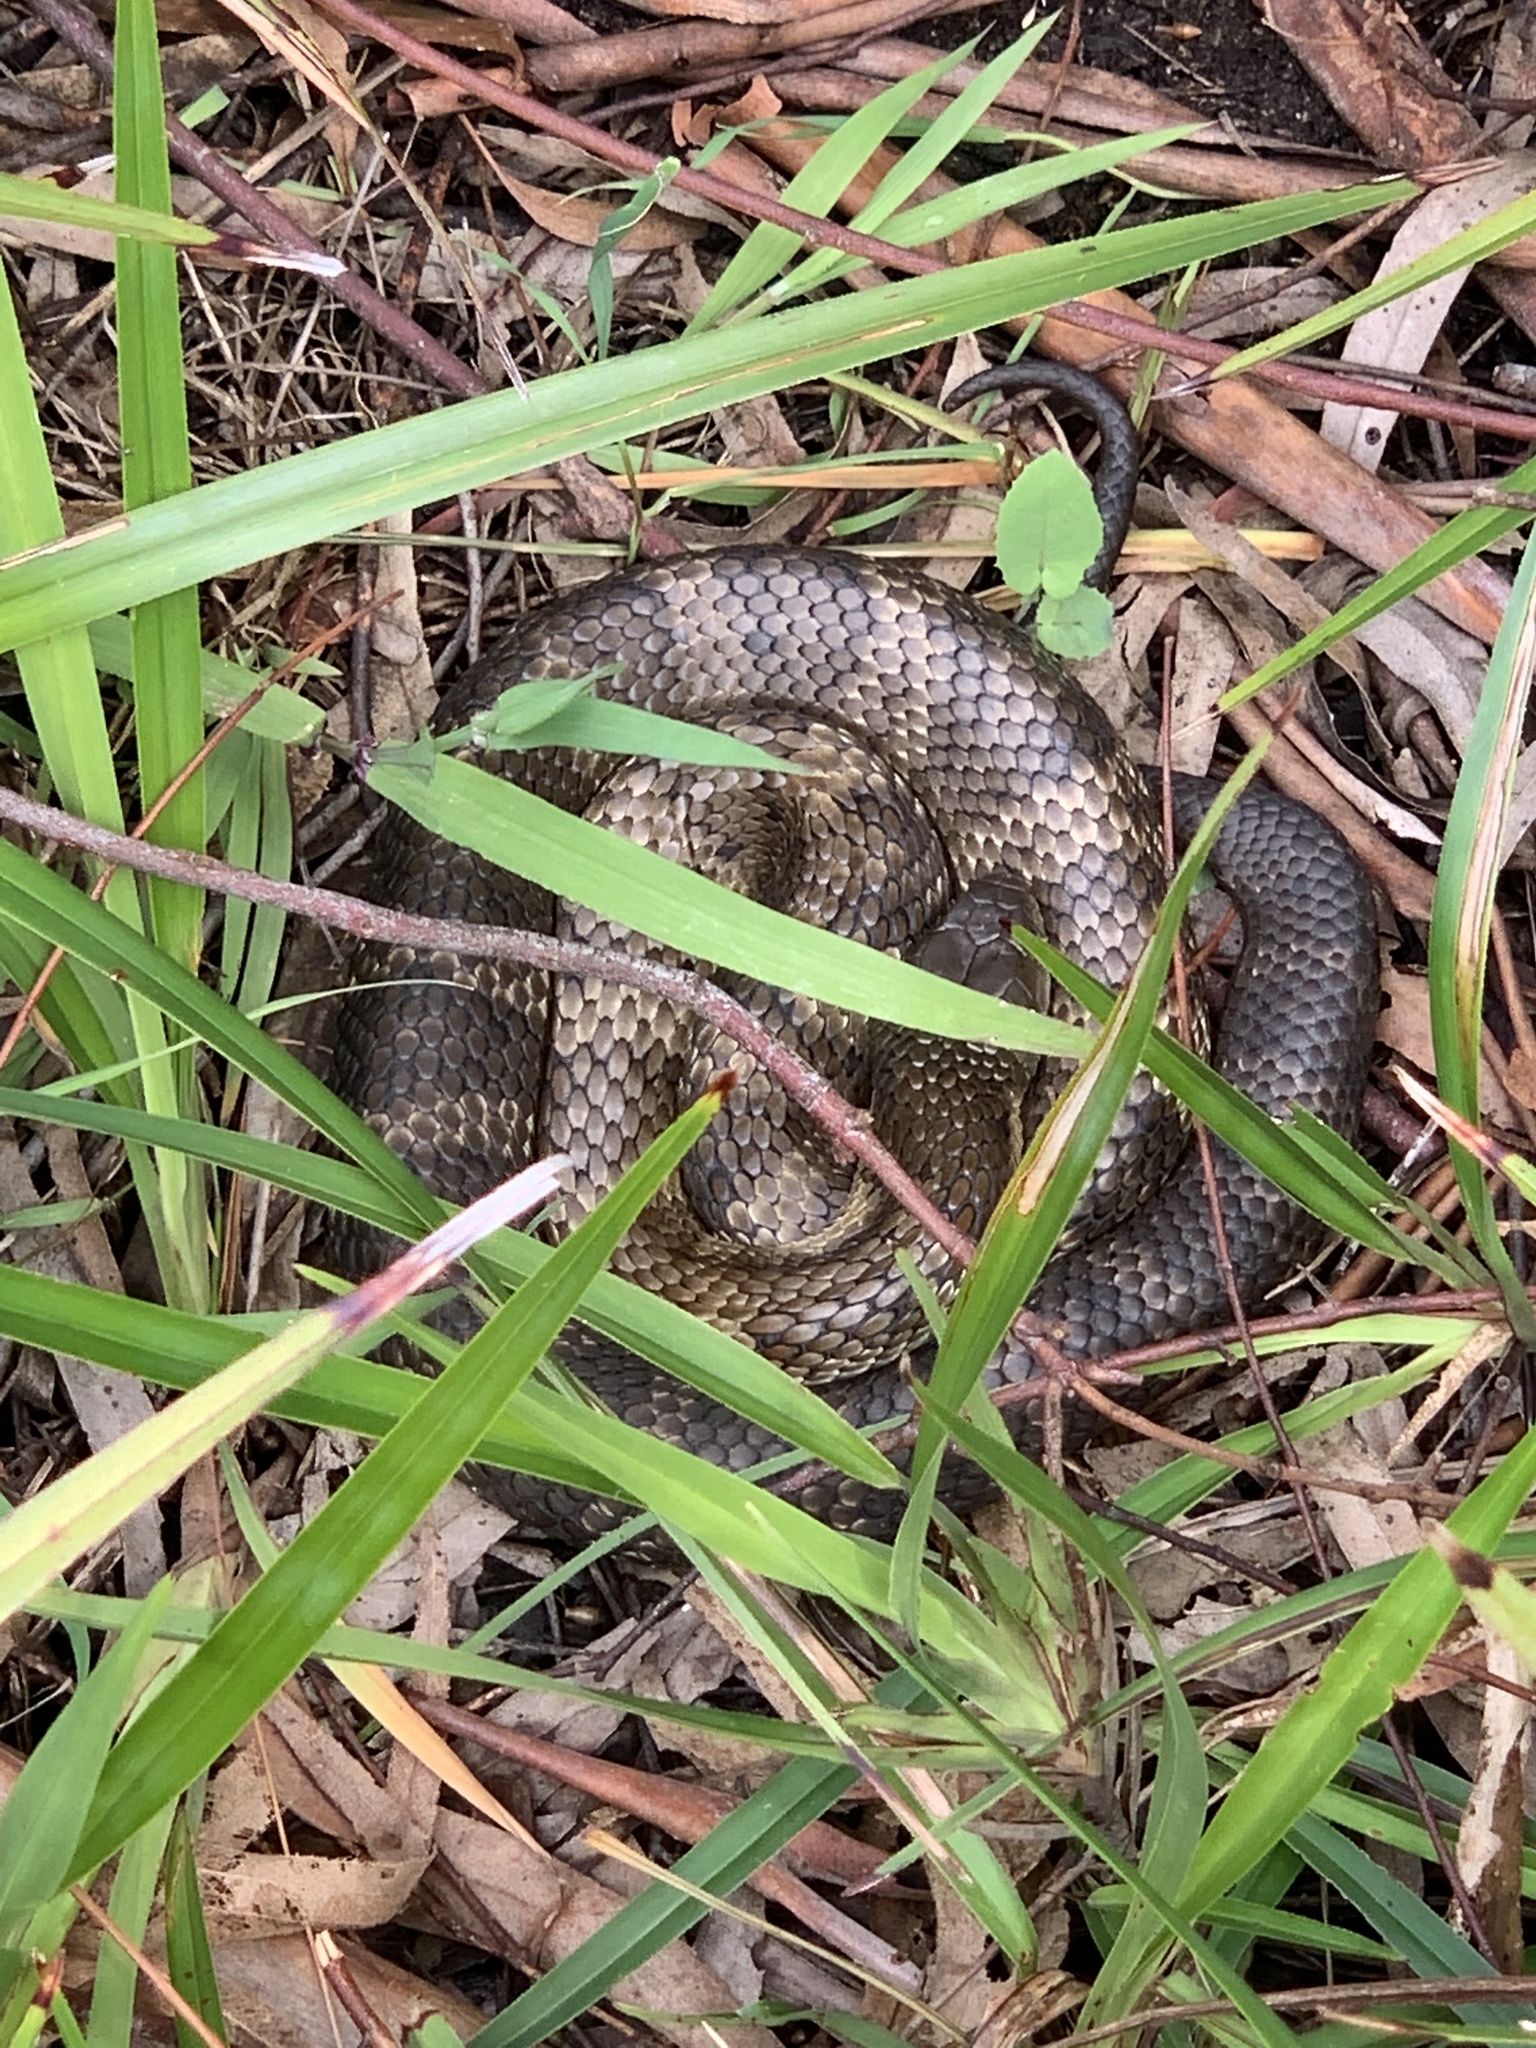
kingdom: Animalia
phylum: Chordata
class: Squamata
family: Elapidae
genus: Notechis
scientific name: Notechis scutatus
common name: Mainland tiger snake
